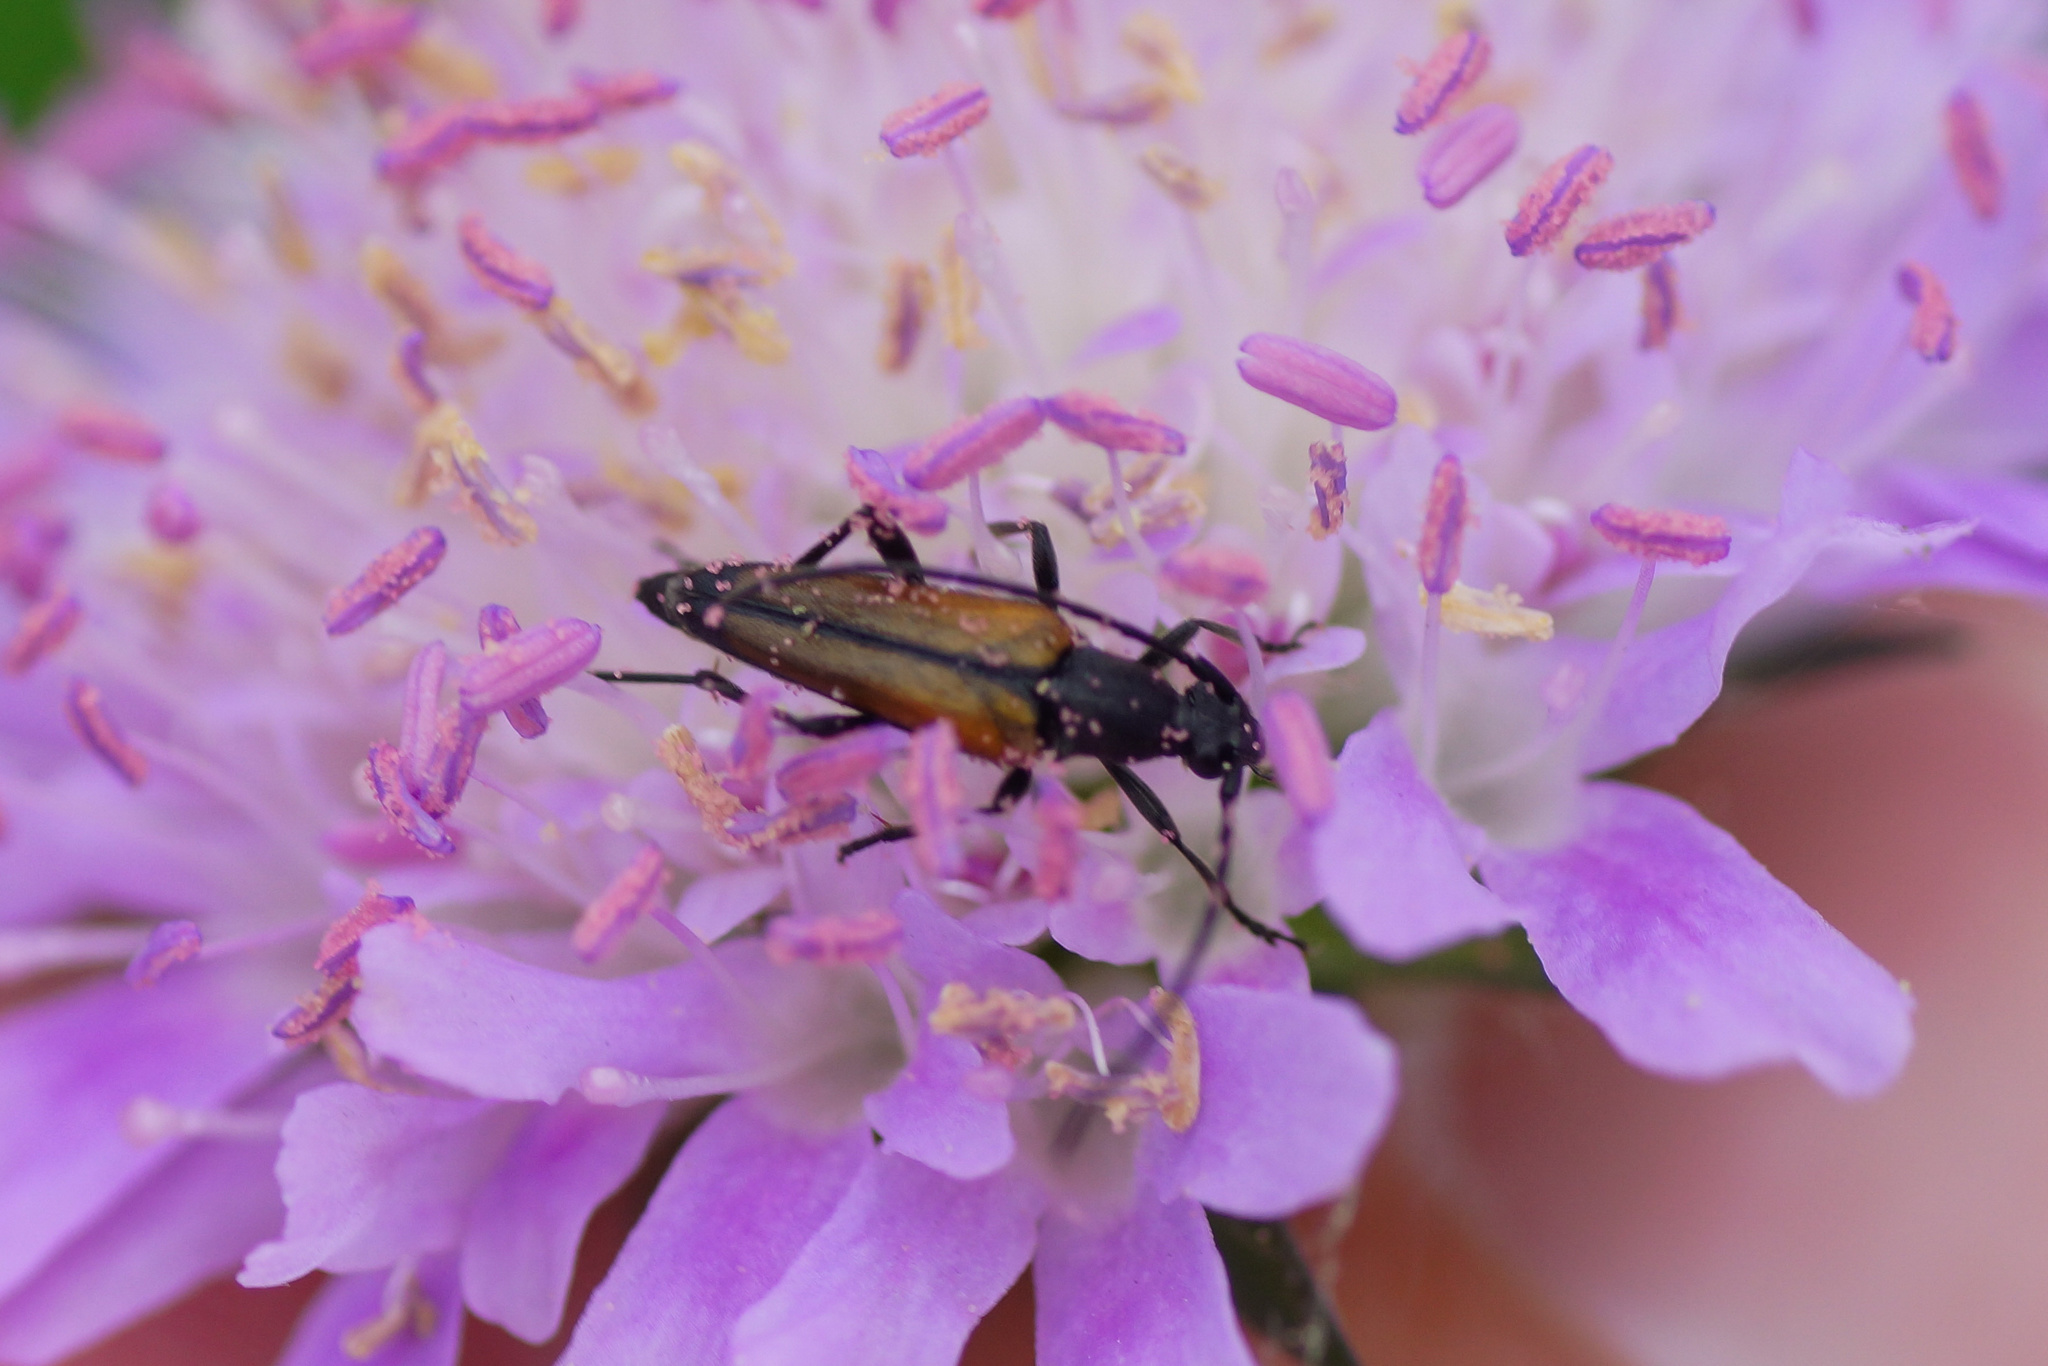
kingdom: Animalia
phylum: Arthropoda
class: Insecta
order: Coleoptera
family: Cerambycidae
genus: Stenurella
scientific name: Stenurella melanura
